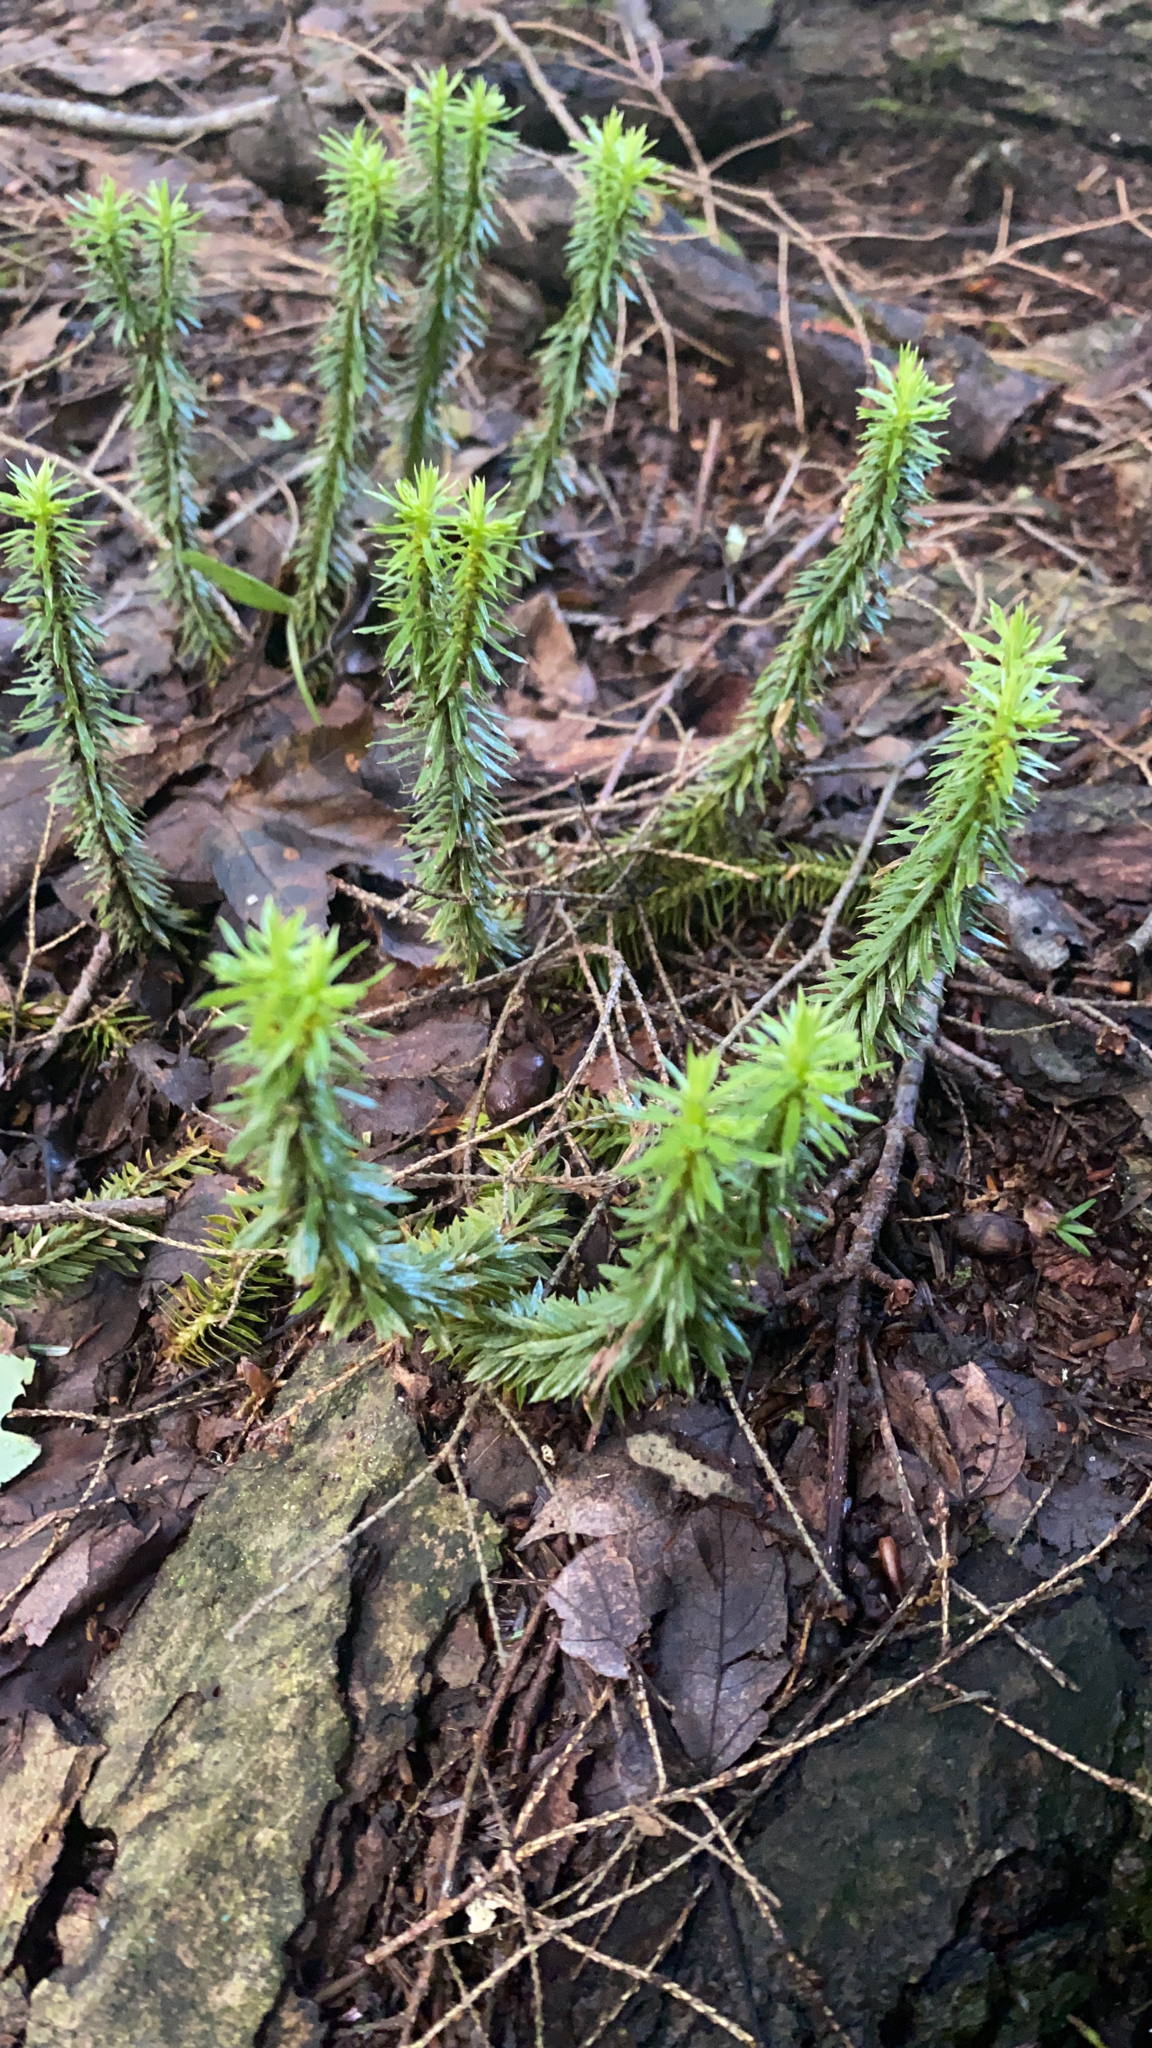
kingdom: Plantae
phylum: Tracheophyta
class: Lycopodiopsida
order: Lycopodiales
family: Lycopodiaceae
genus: Huperzia
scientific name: Huperzia lucidula
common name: Shining clubmoss
